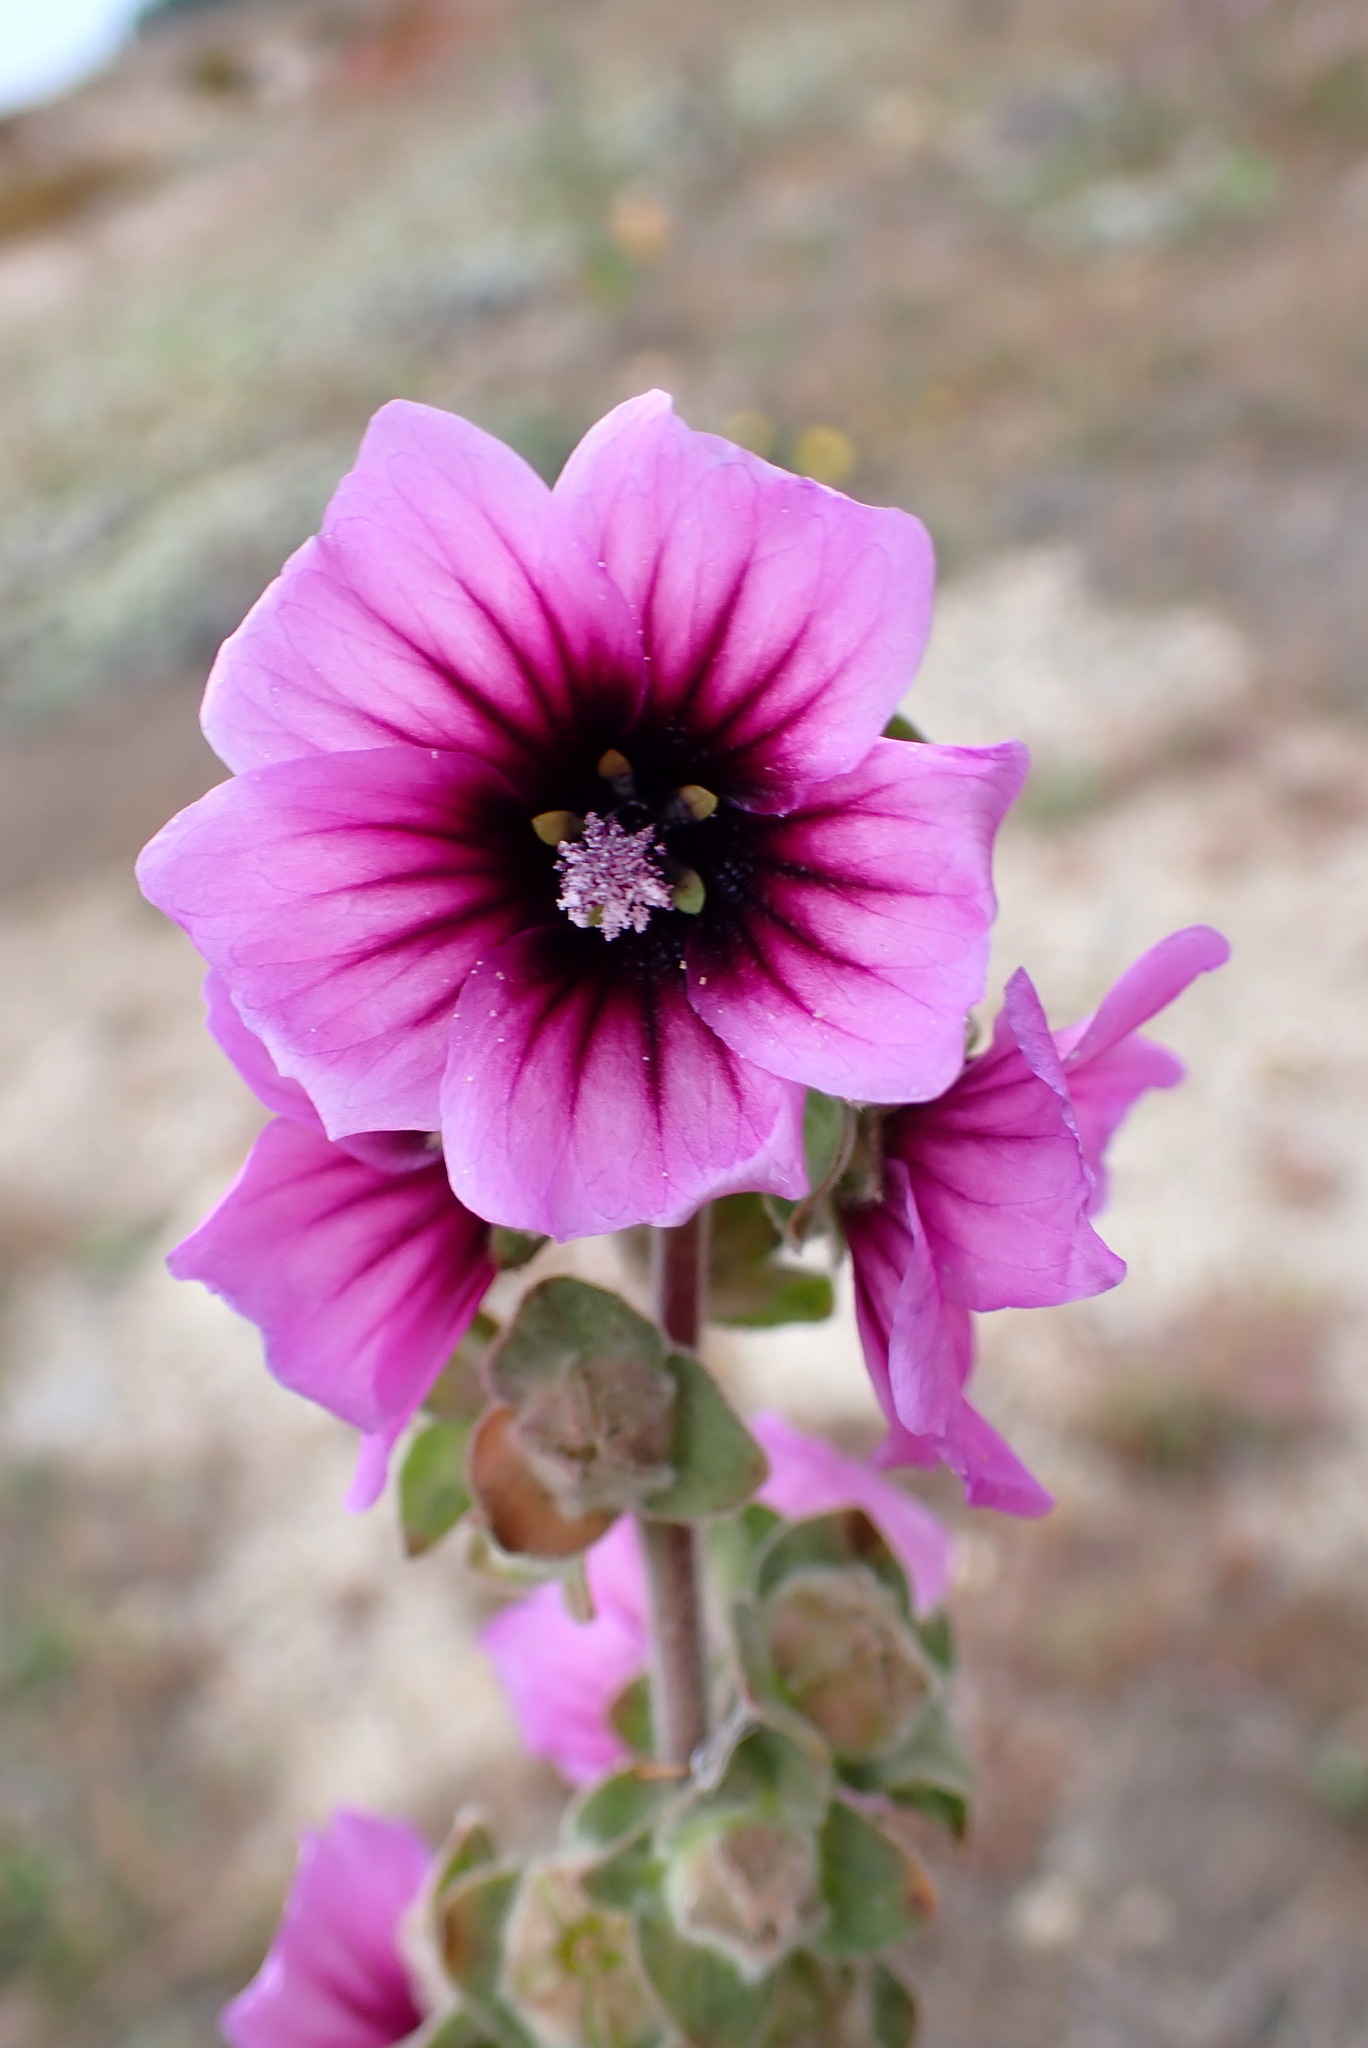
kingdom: Plantae
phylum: Tracheophyta
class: Magnoliopsida
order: Malvales
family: Malvaceae
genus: Malva
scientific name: Malva arborea
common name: Tree mallow
